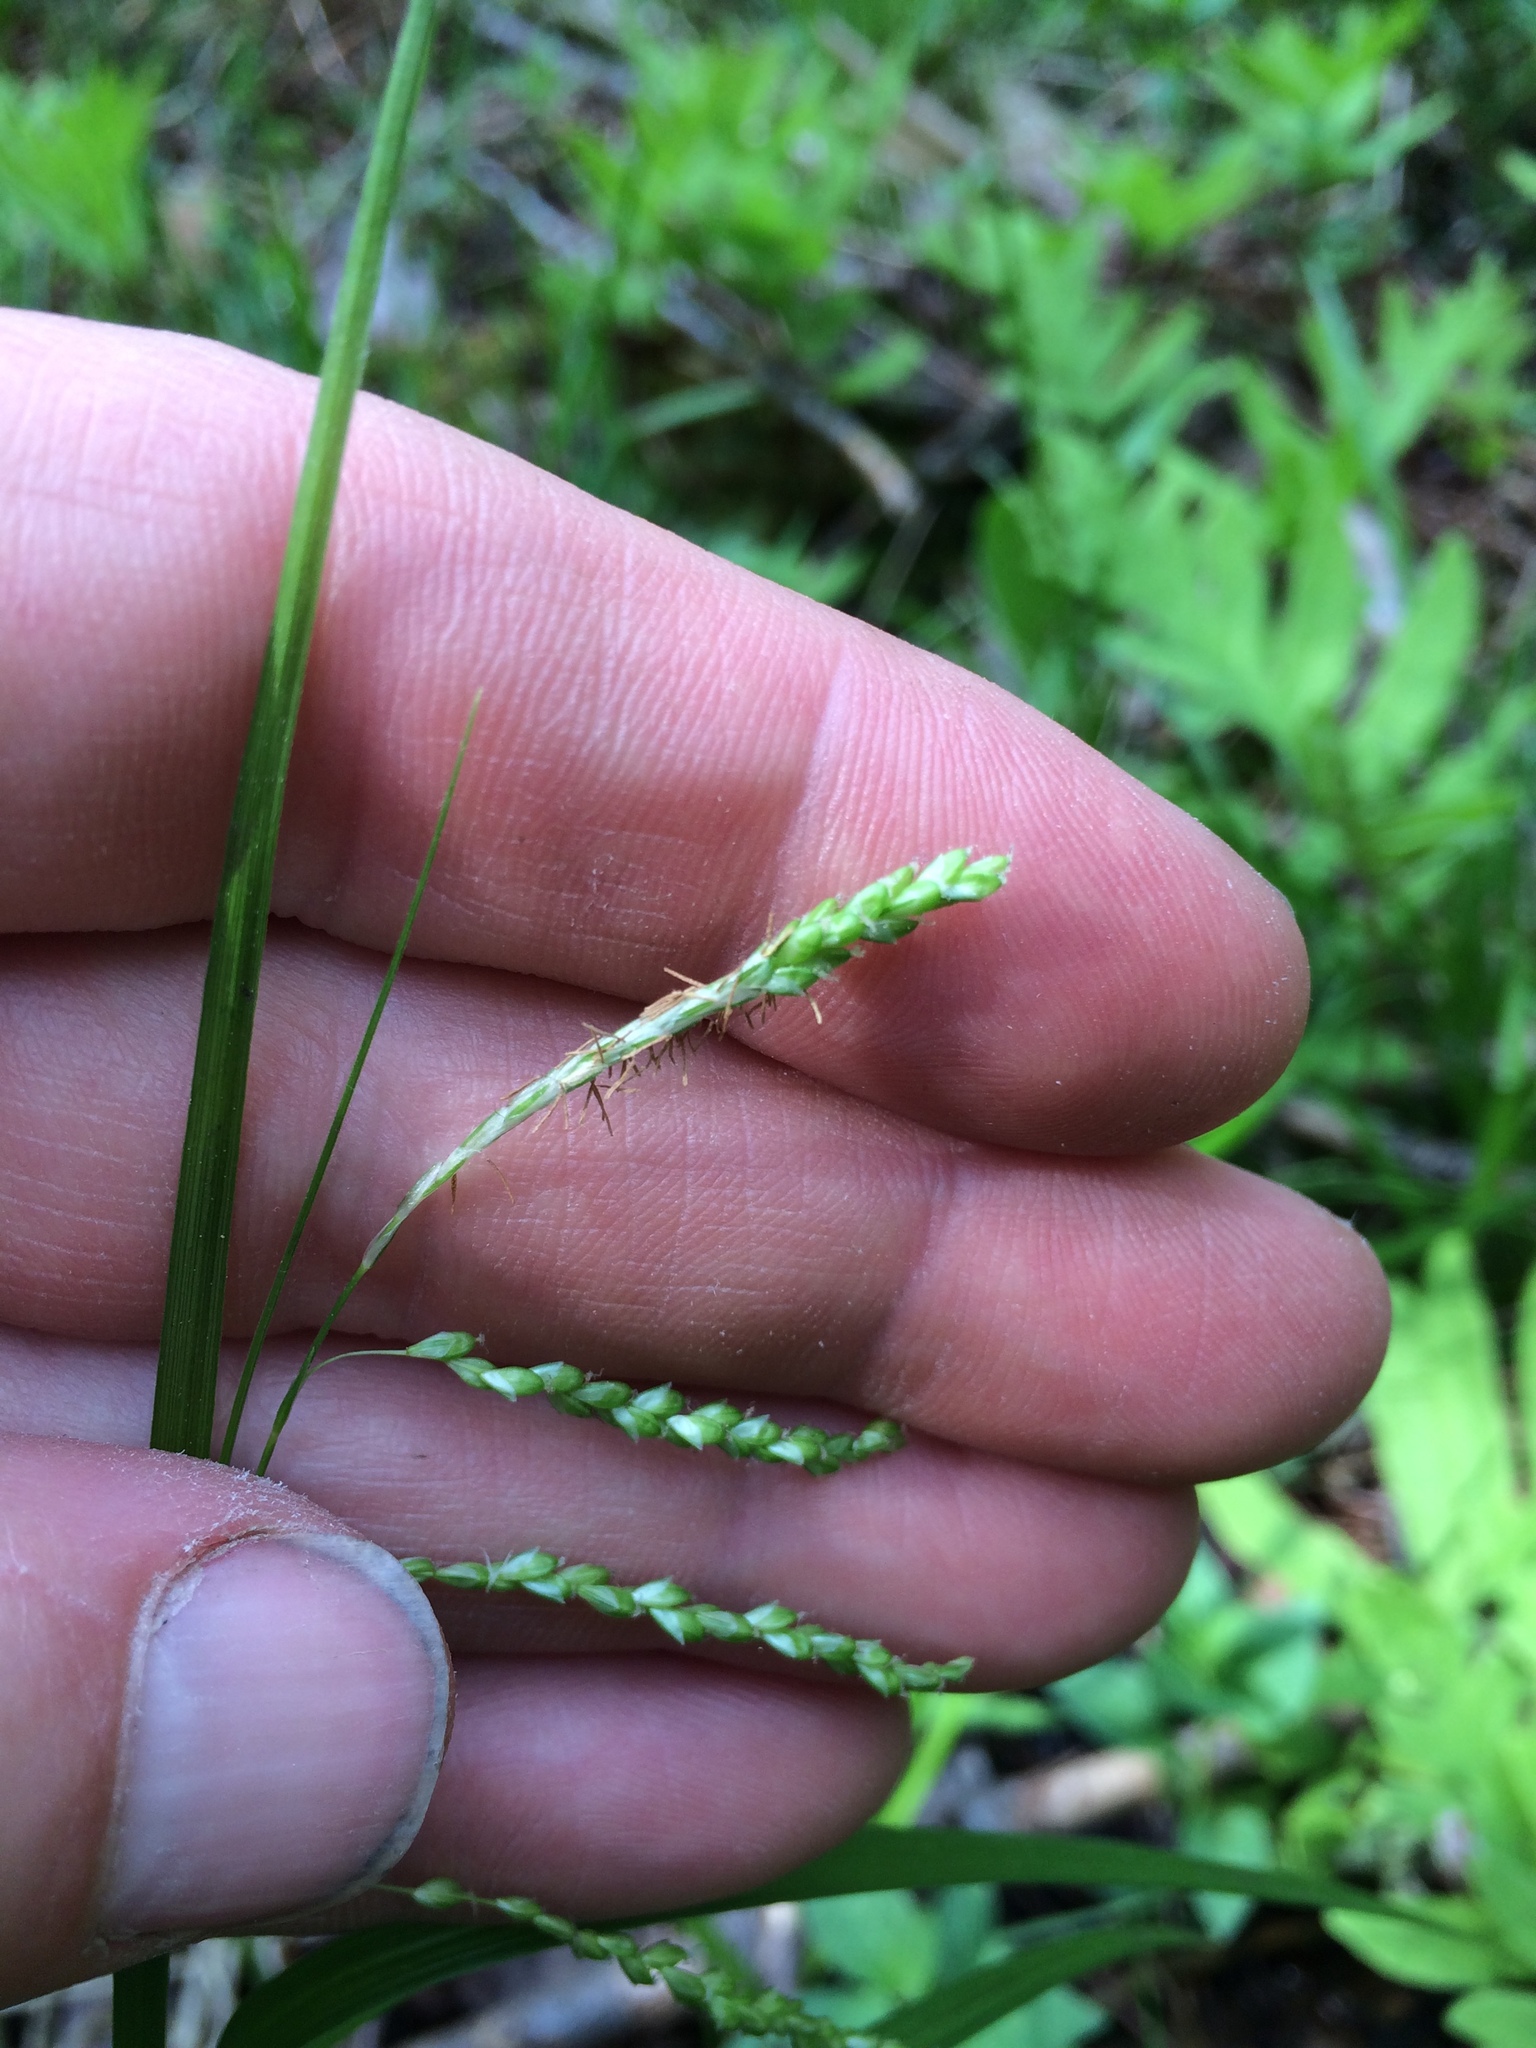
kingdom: Plantae
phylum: Tracheophyta
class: Liliopsida
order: Poales
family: Cyperaceae
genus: Carex
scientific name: Carex gracillima
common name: Graceful sedge
